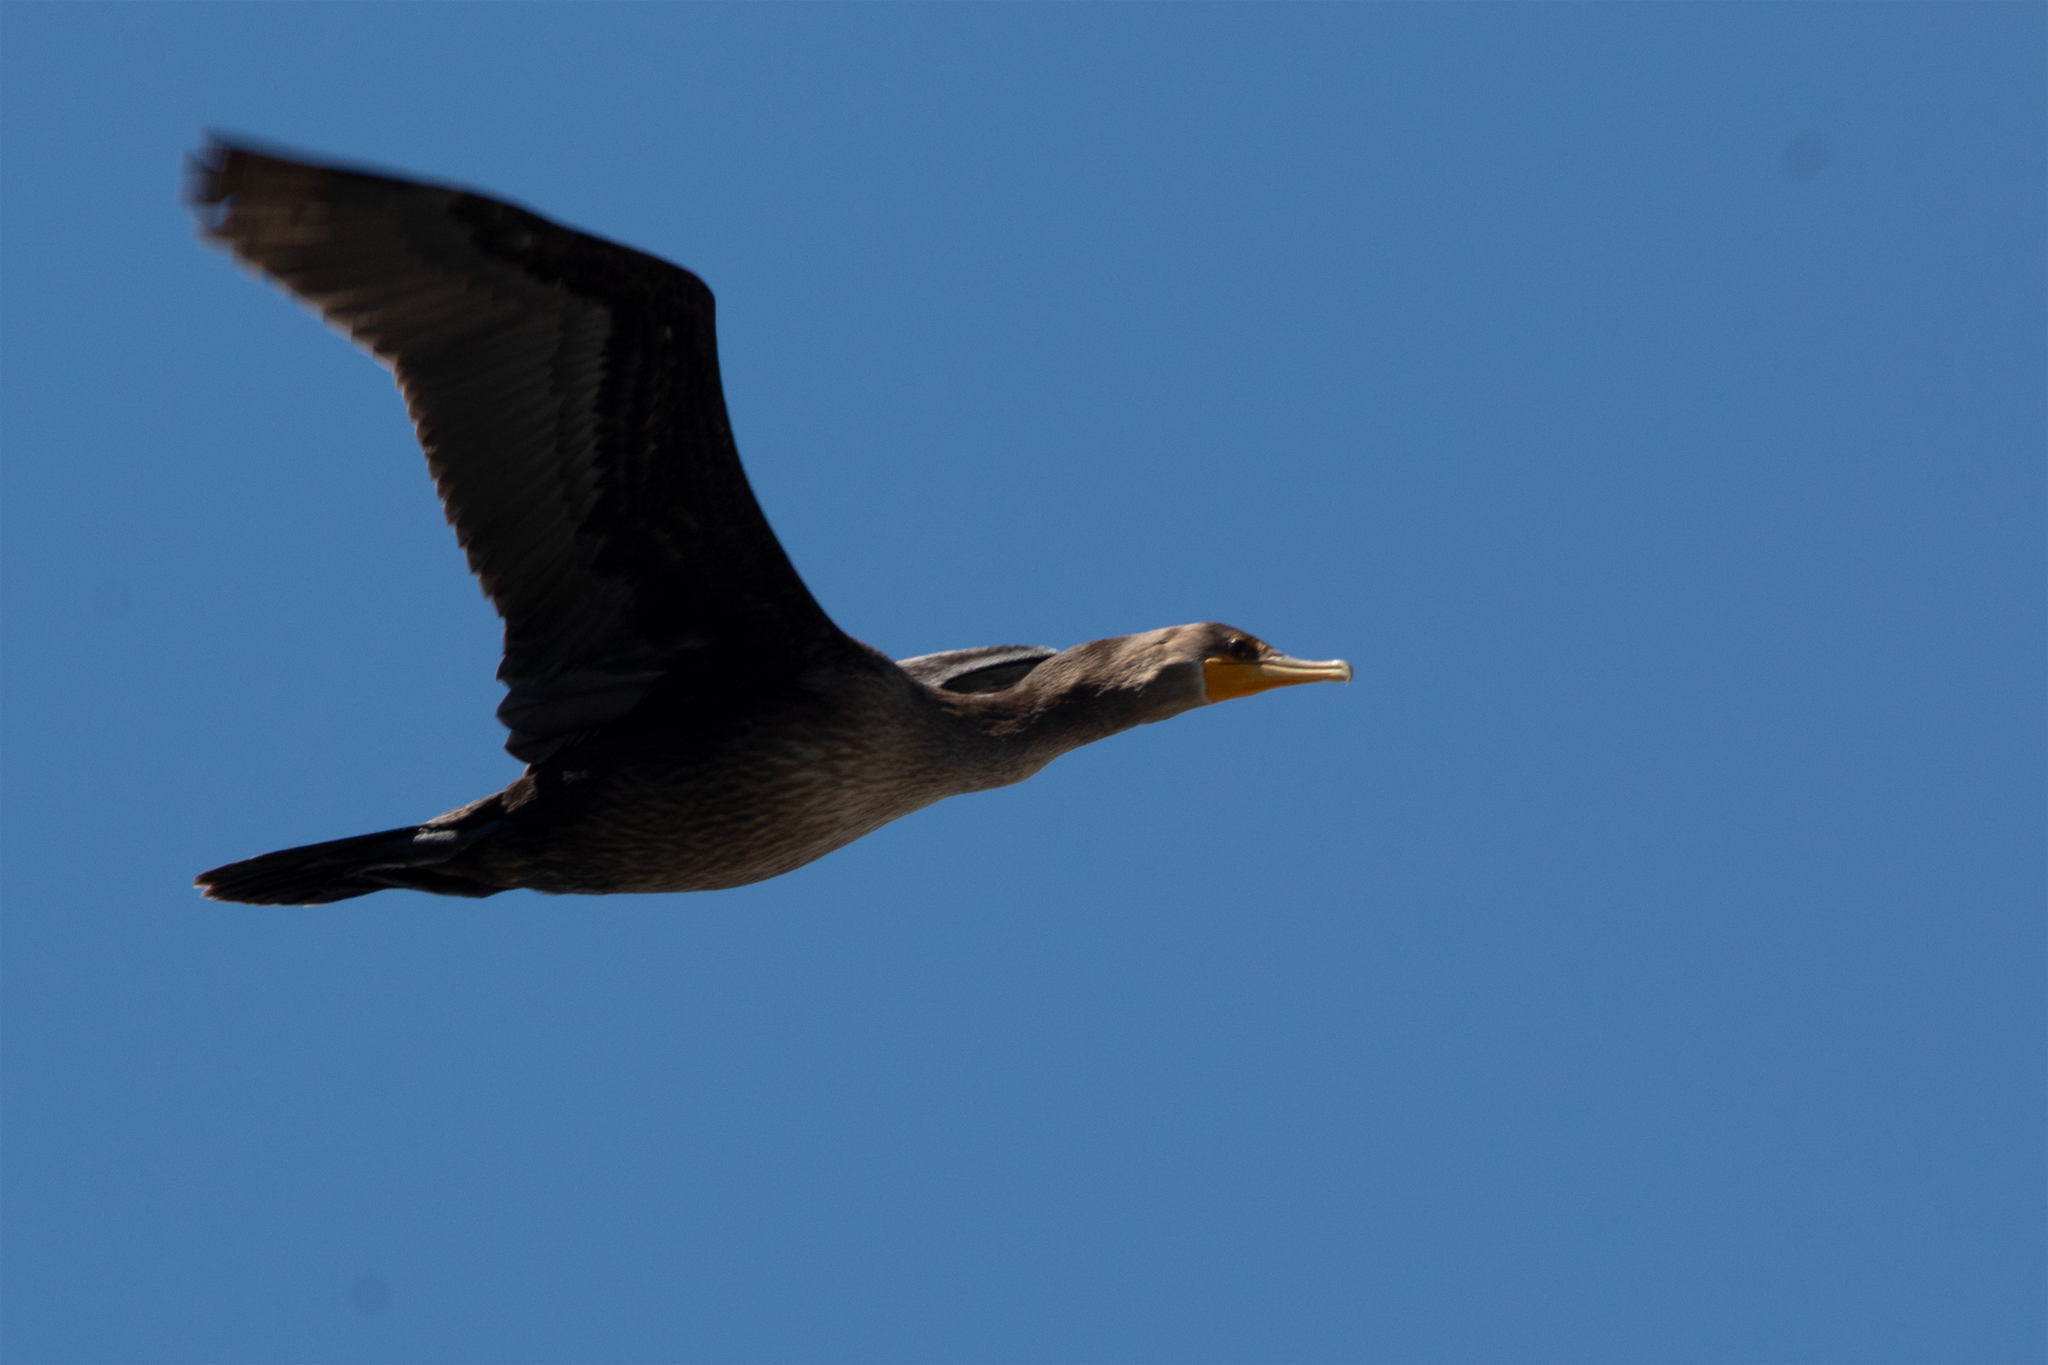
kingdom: Animalia
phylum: Chordata
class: Aves
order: Suliformes
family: Phalacrocoracidae
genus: Phalacrocorax
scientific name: Phalacrocorax auritus
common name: Double-crested cormorant
